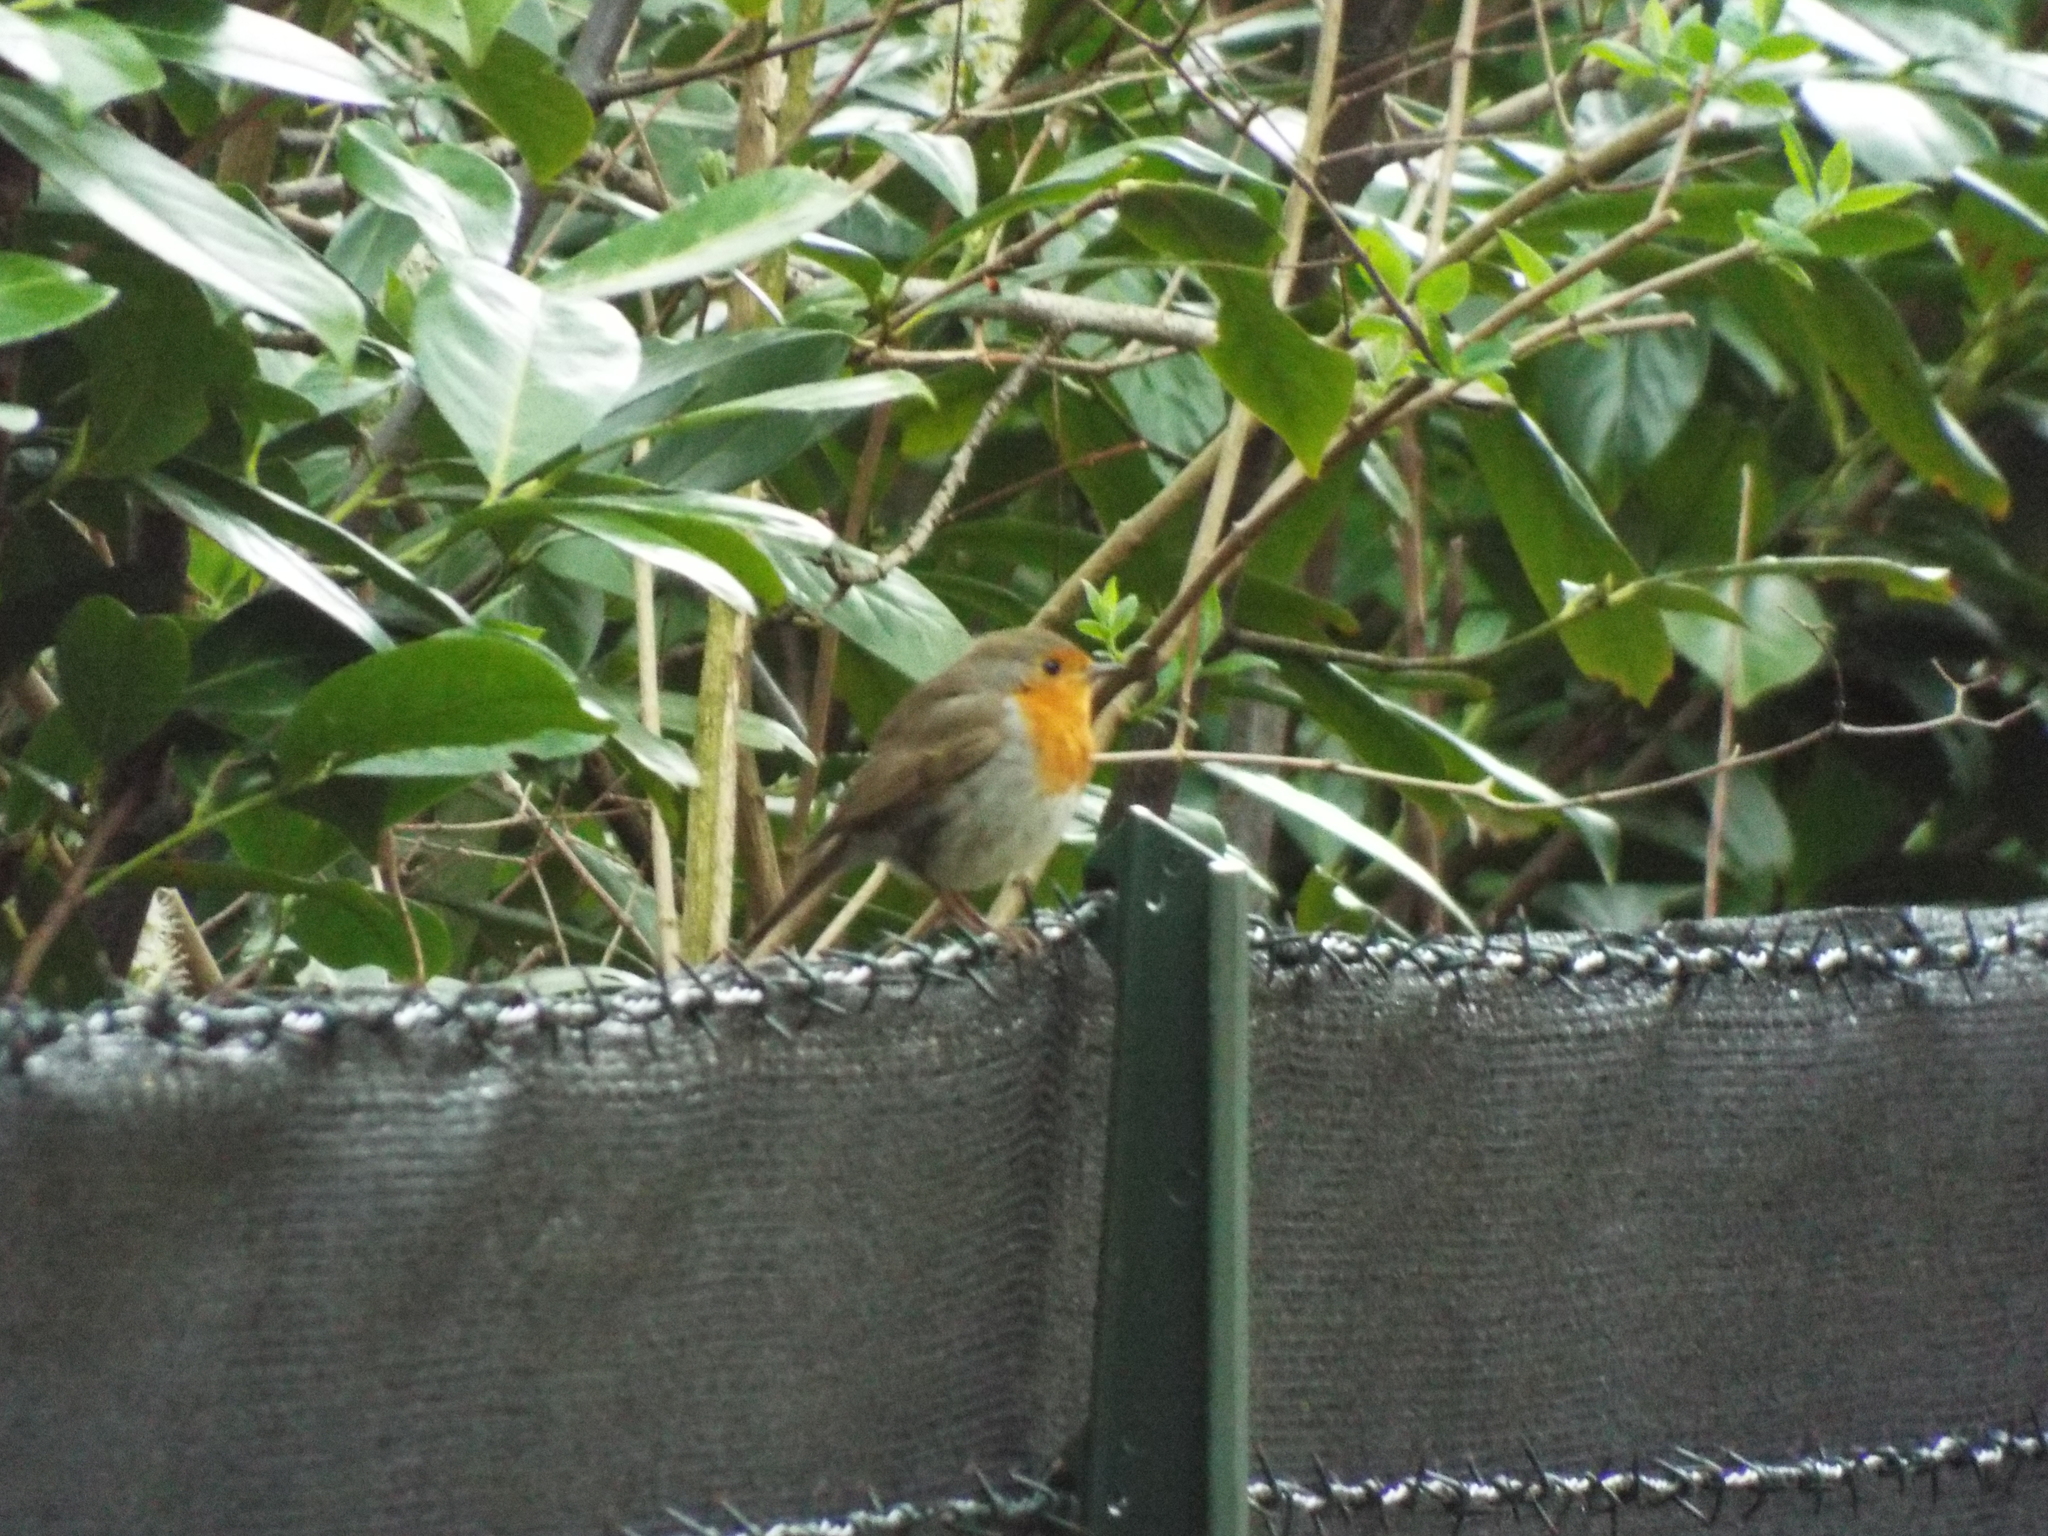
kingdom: Animalia
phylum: Chordata
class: Aves
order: Passeriformes
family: Muscicapidae
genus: Erithacus
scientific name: Erithacus rubecula
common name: European robin
